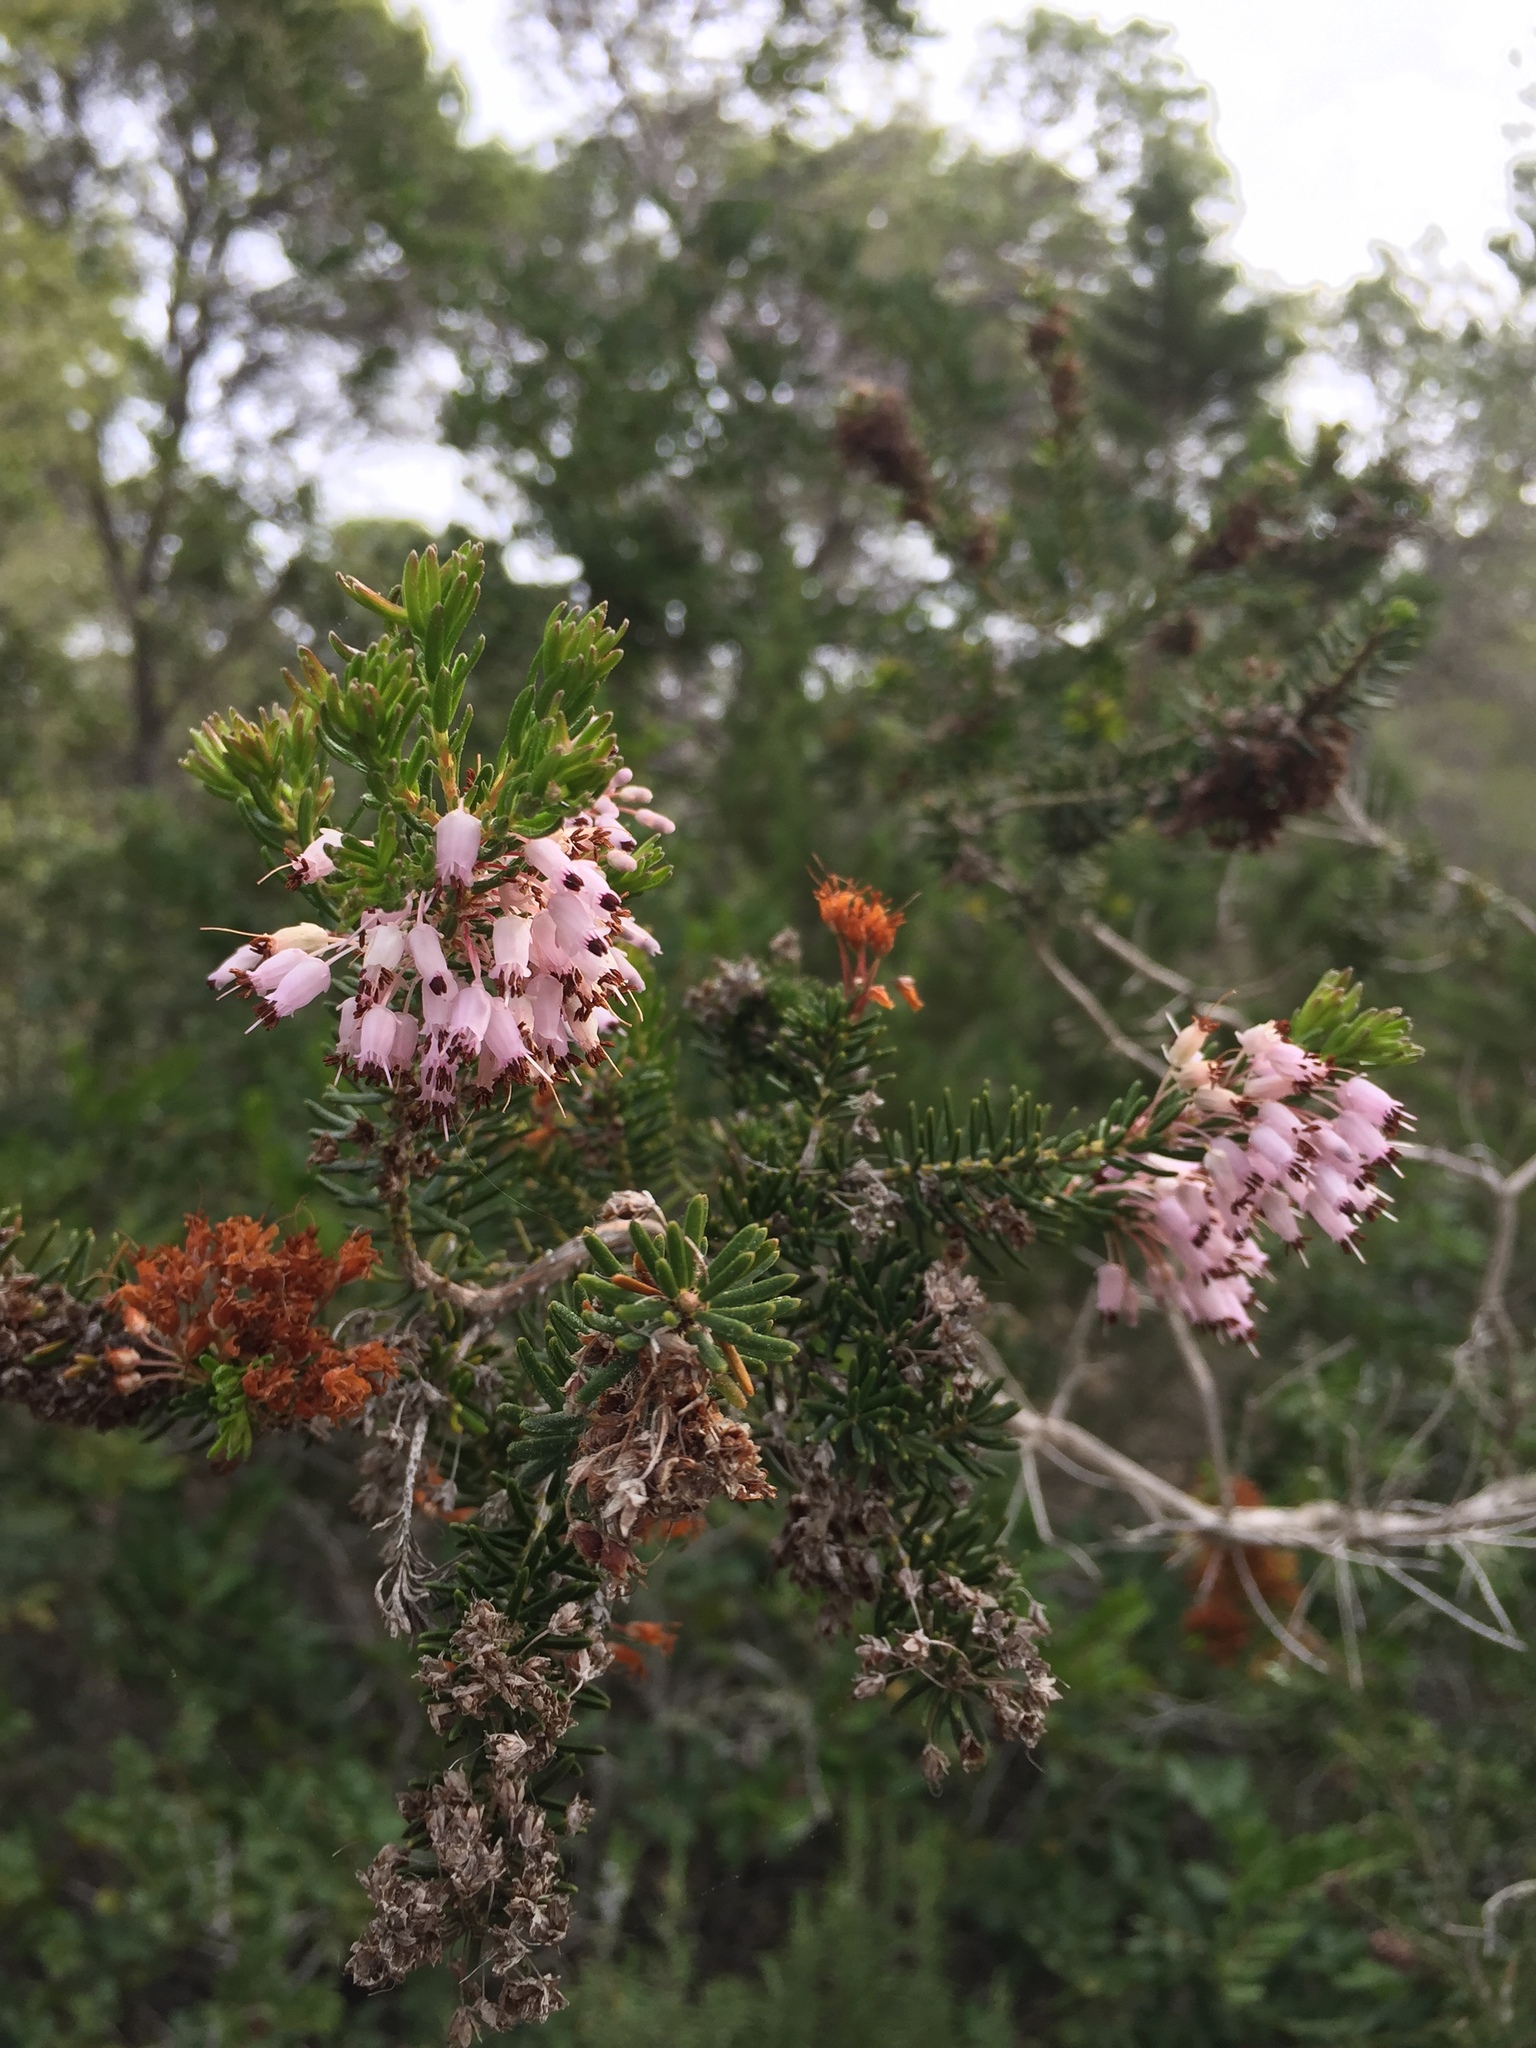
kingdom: Plantae
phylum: Tracheophyta
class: Magnoliopsida
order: Ericales
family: Ericaceae
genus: Erica
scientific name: Erica multiflora
